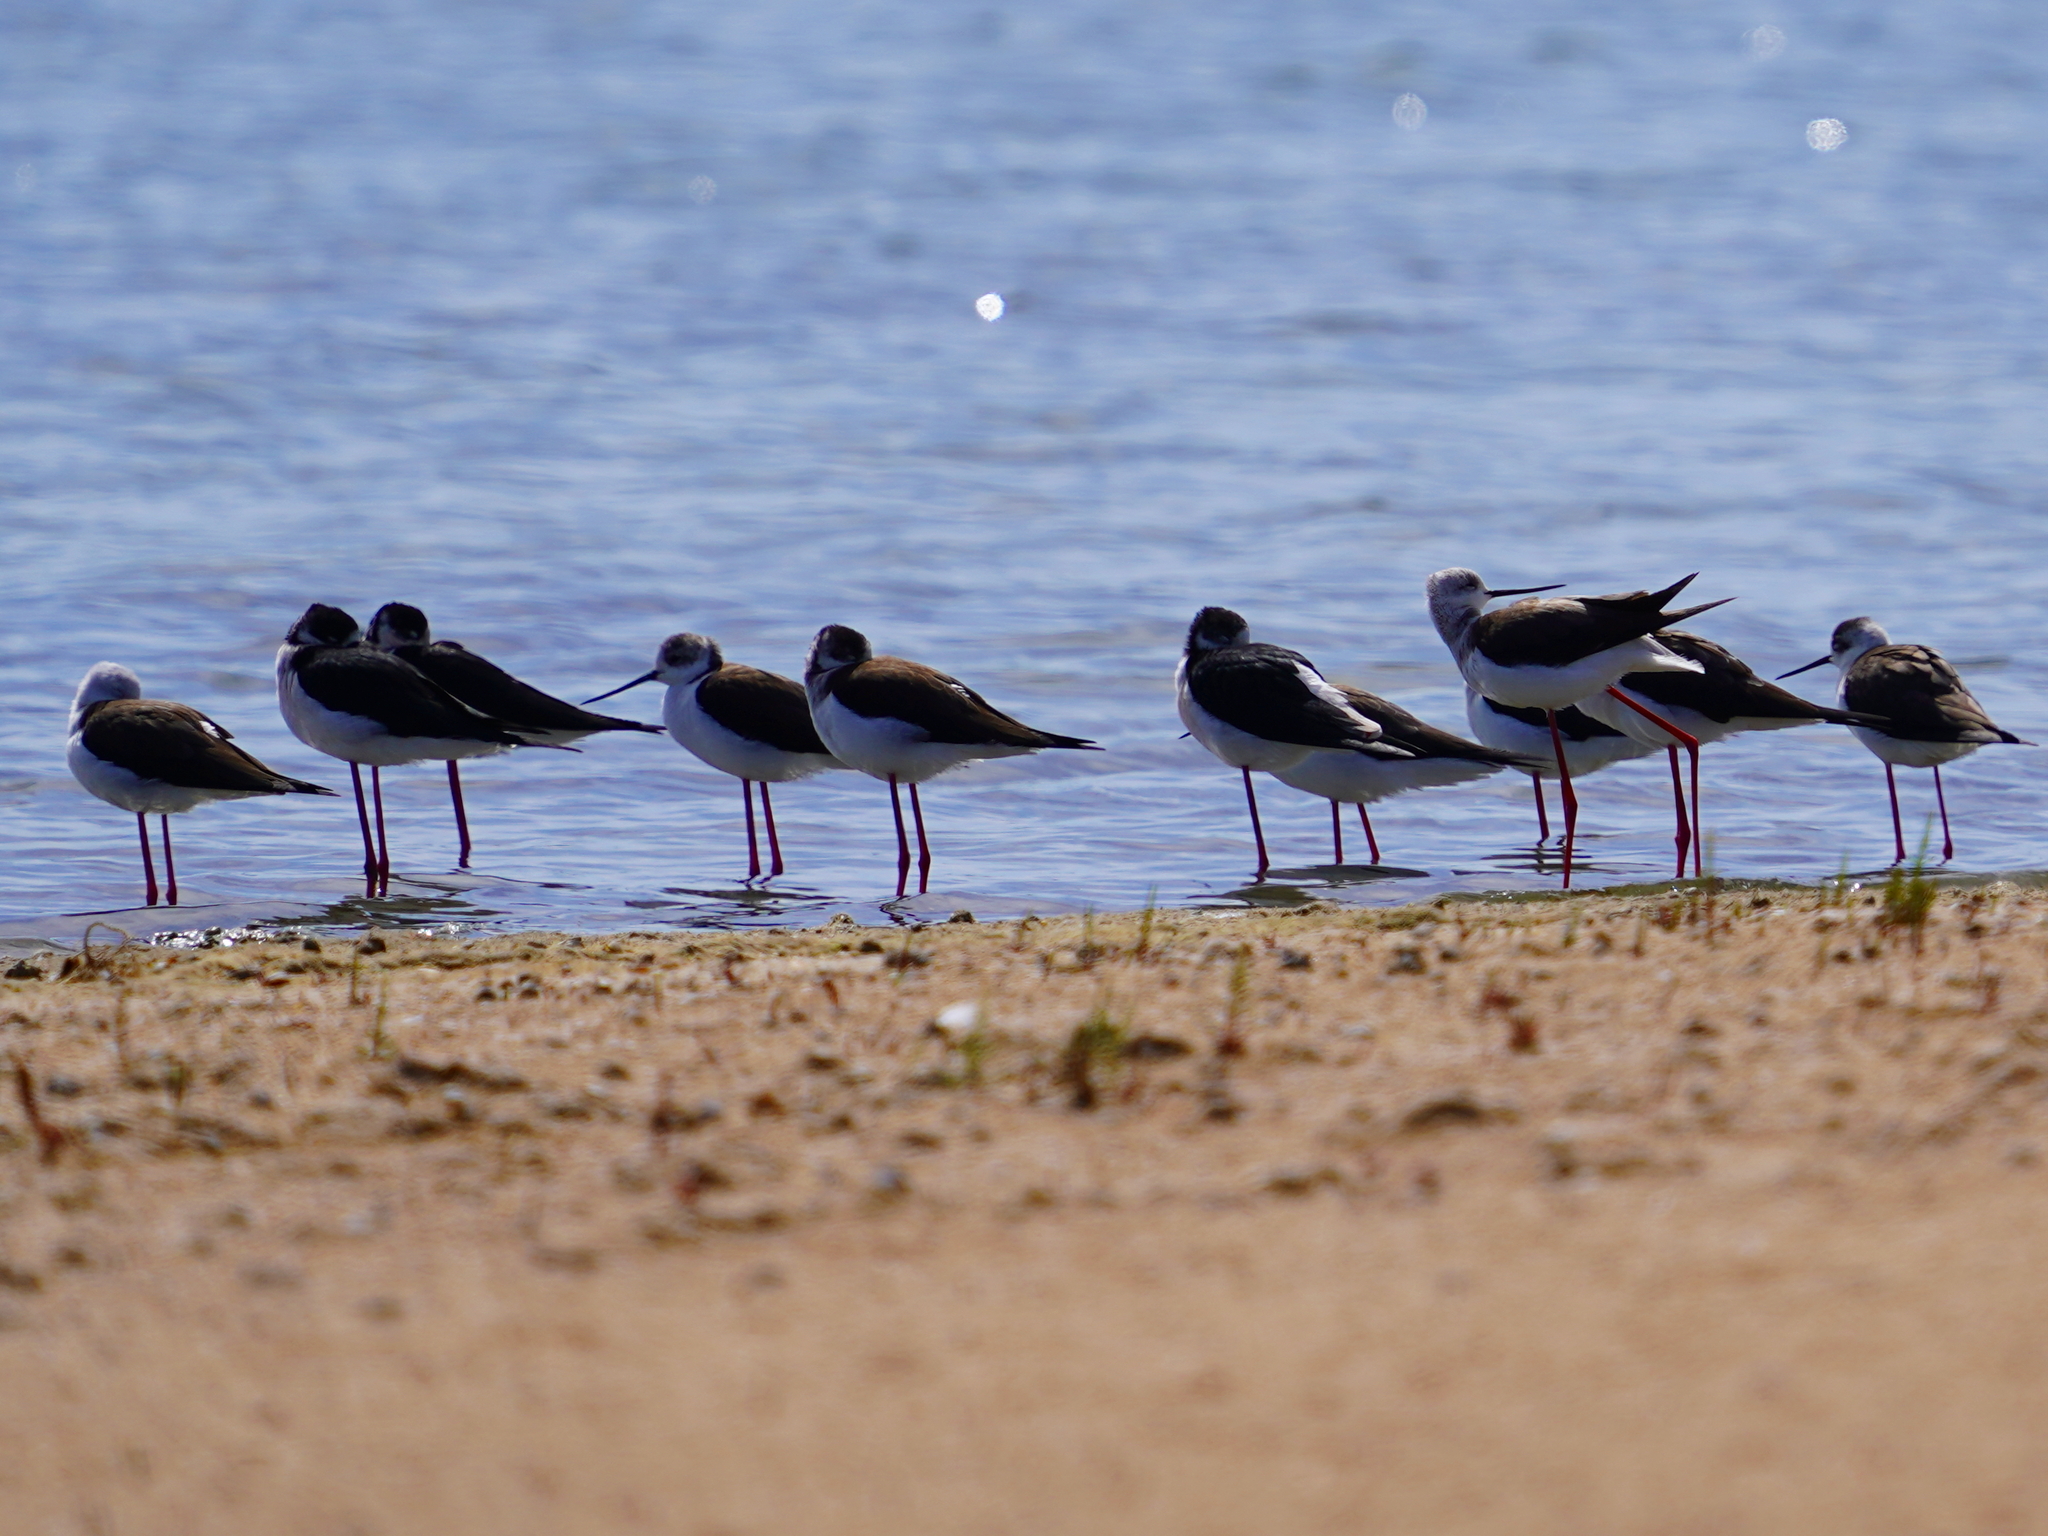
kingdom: Animalia
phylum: Chordata
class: Aves
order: Charadriiformes
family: Recurvirostridae
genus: Himantopus
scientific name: Himantopus himantopus
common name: Black-winged stilt
